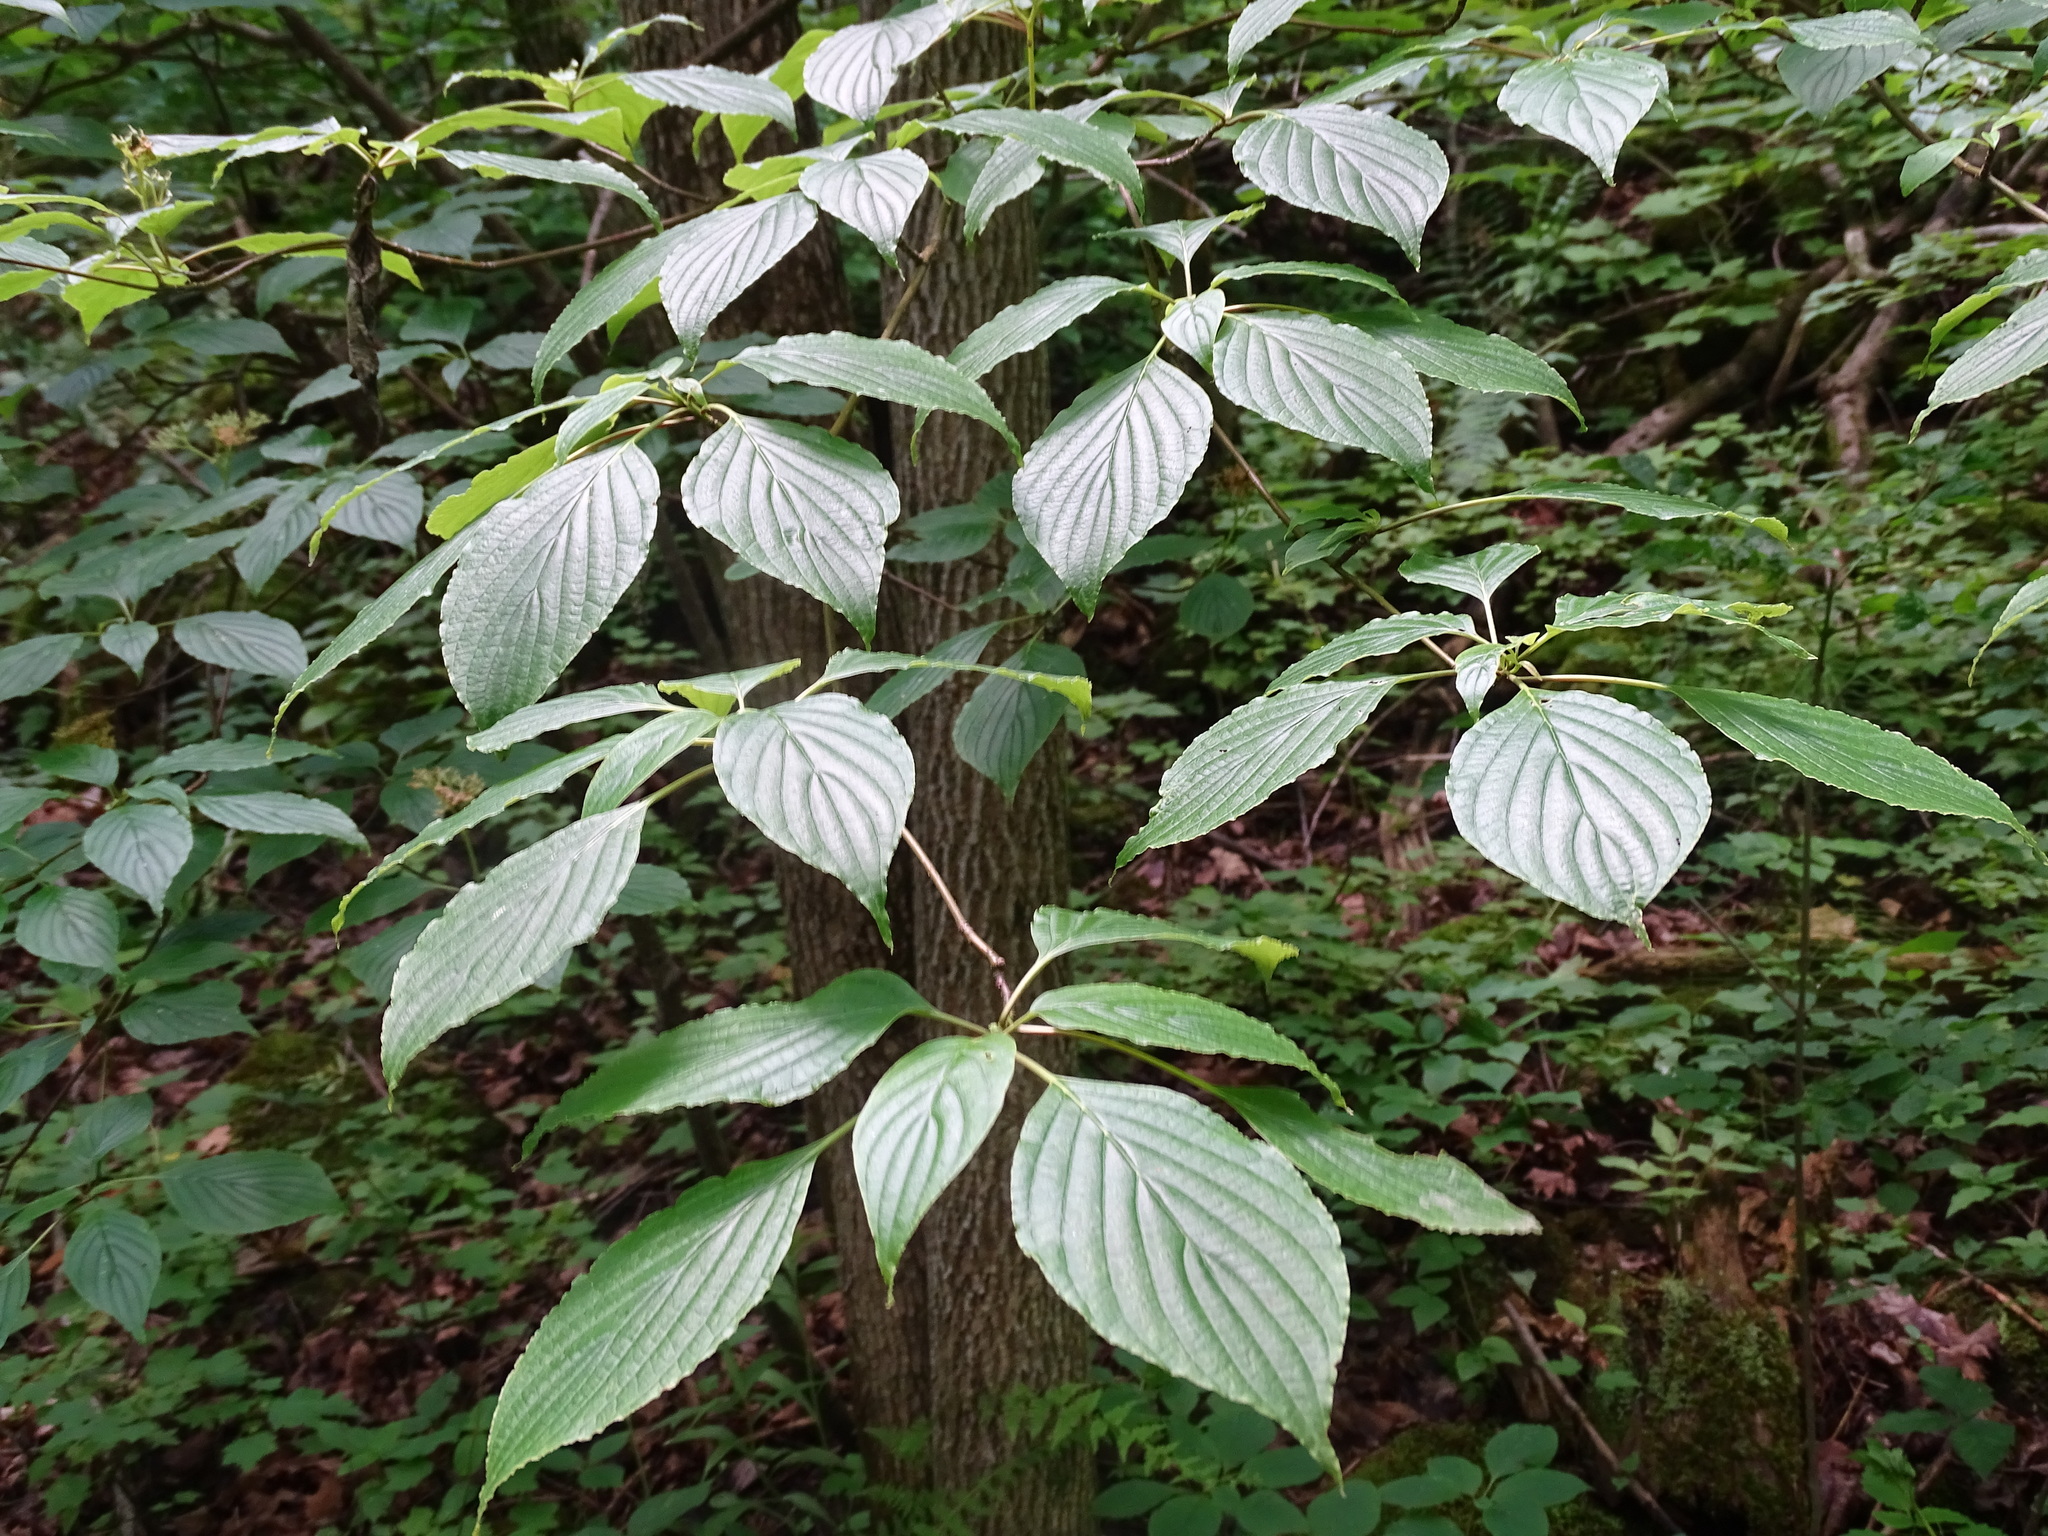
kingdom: Plantae
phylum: Tracheophyta
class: Magnoliopsida
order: Cornales
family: Cornaceae
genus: Cornus
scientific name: Cornus alternifolia
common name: Pagoda dogwood
